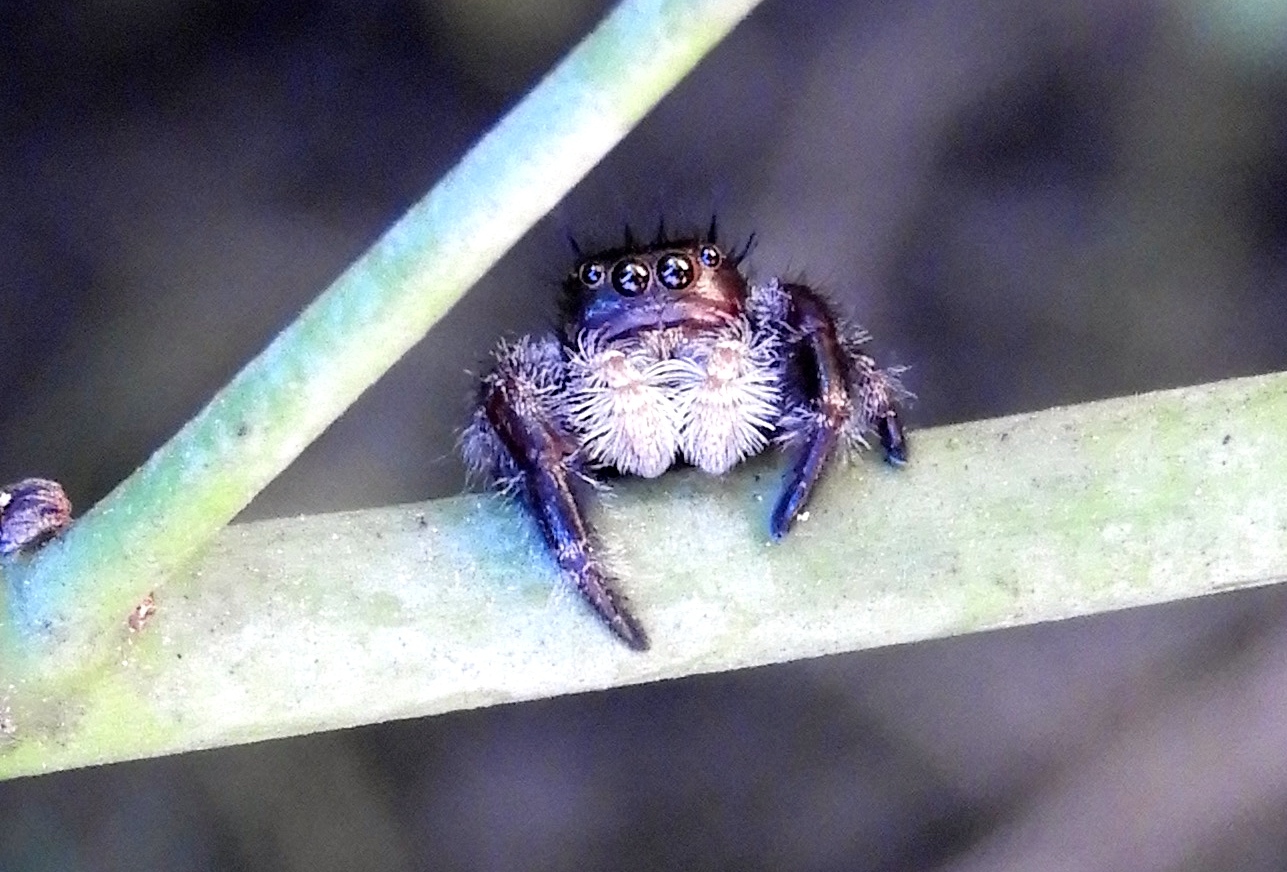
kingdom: Animalia
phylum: Arthropoda
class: Arachnida
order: Araneae
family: Salticidae
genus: Phidippus
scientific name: Phidippus maddisoni
